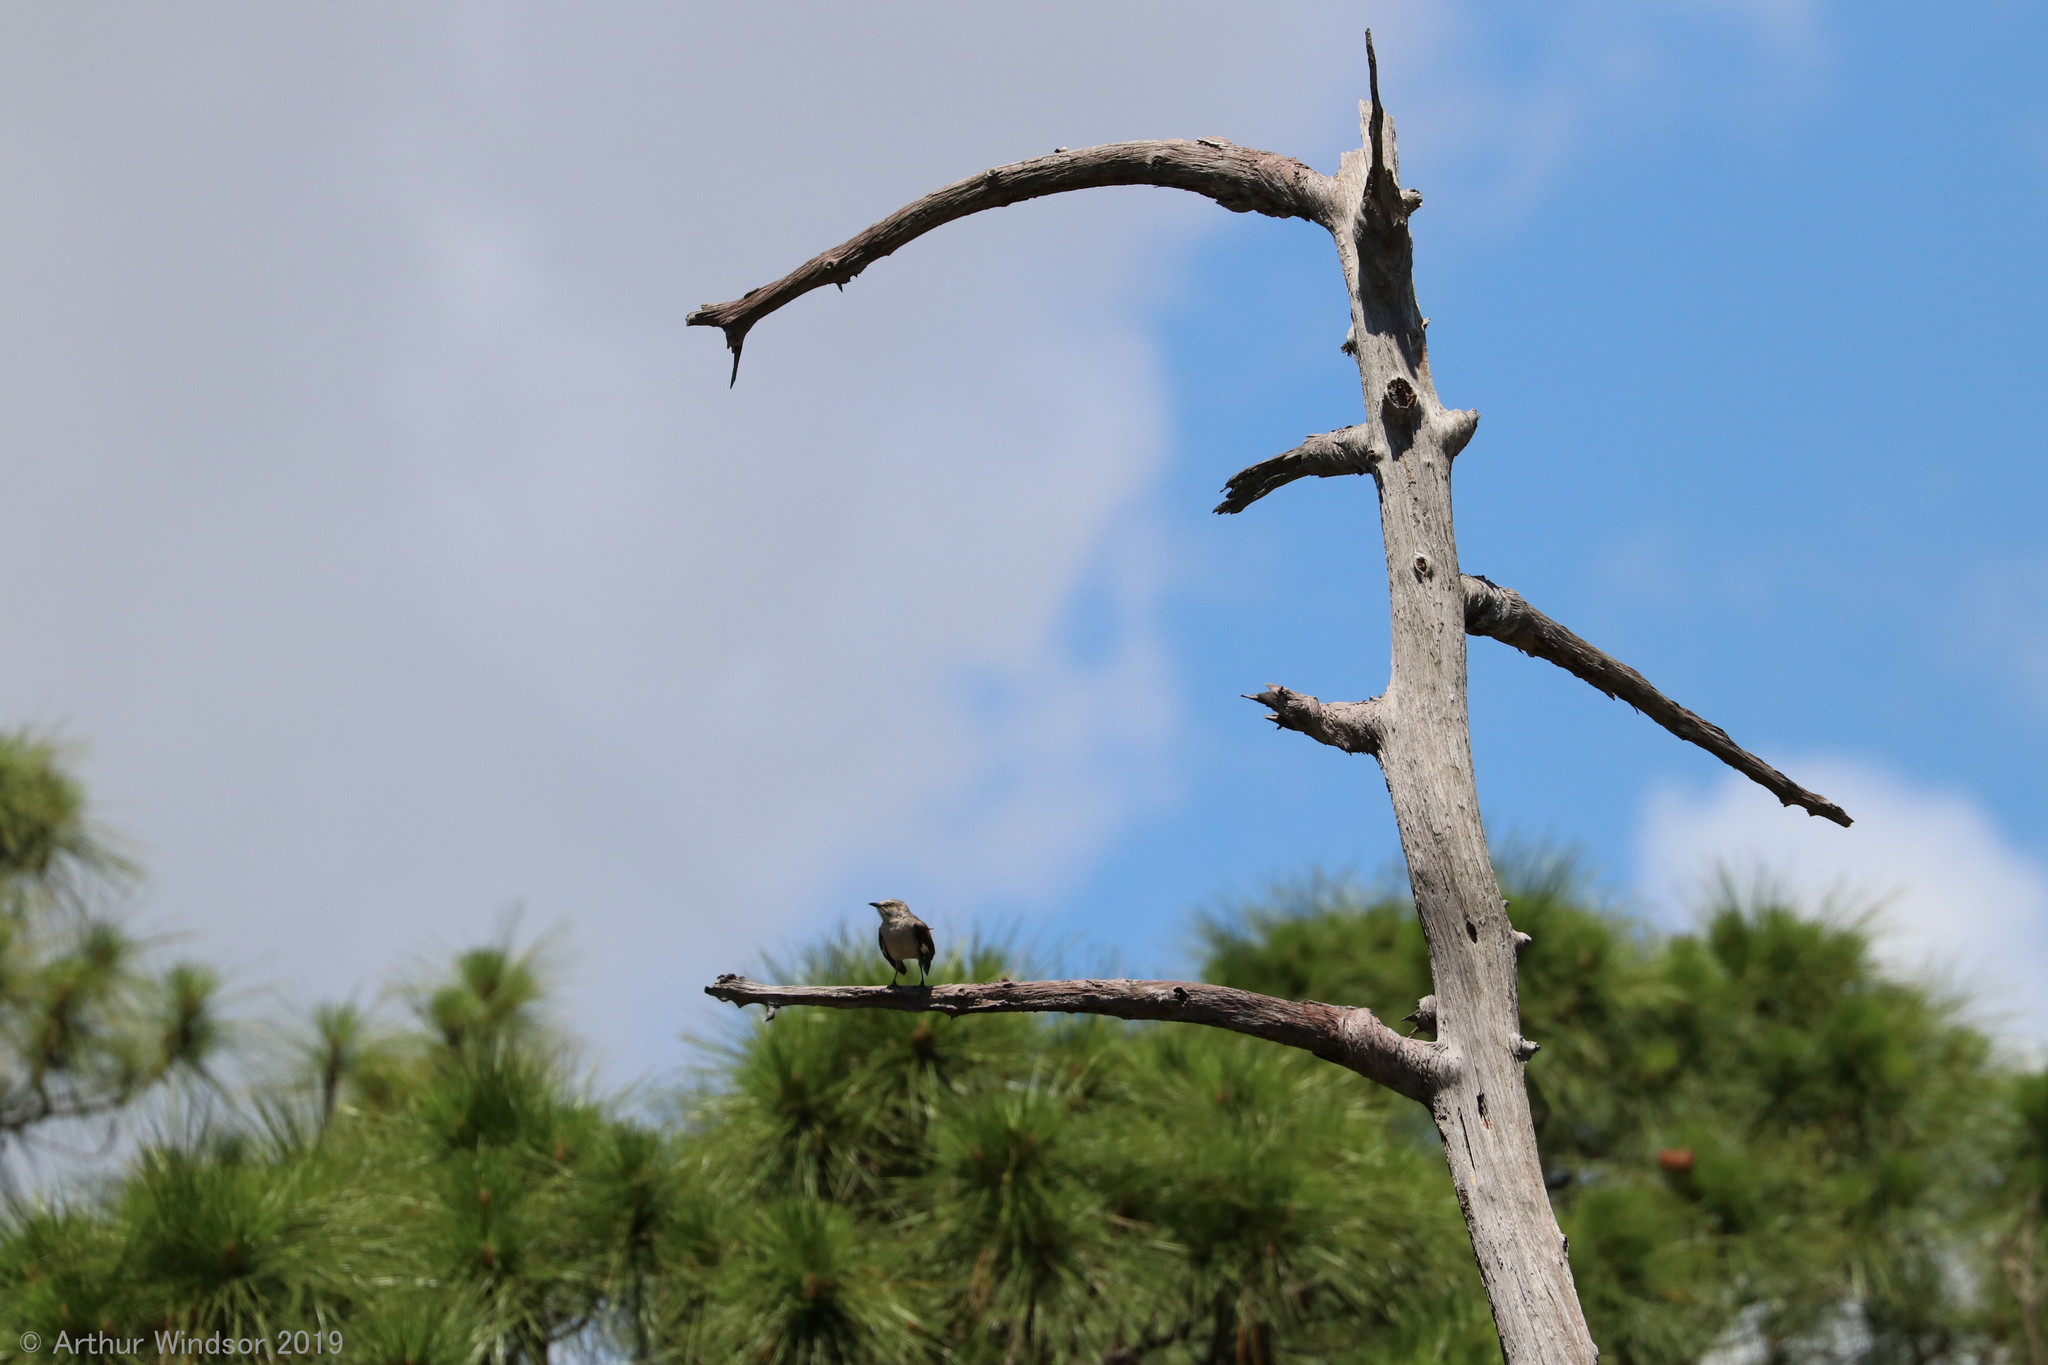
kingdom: Animalia
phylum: Chordata
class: Aves
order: Passeriformes
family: Mimidae
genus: Mimus
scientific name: Mimus polyglottos
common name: Northern mockingbird
